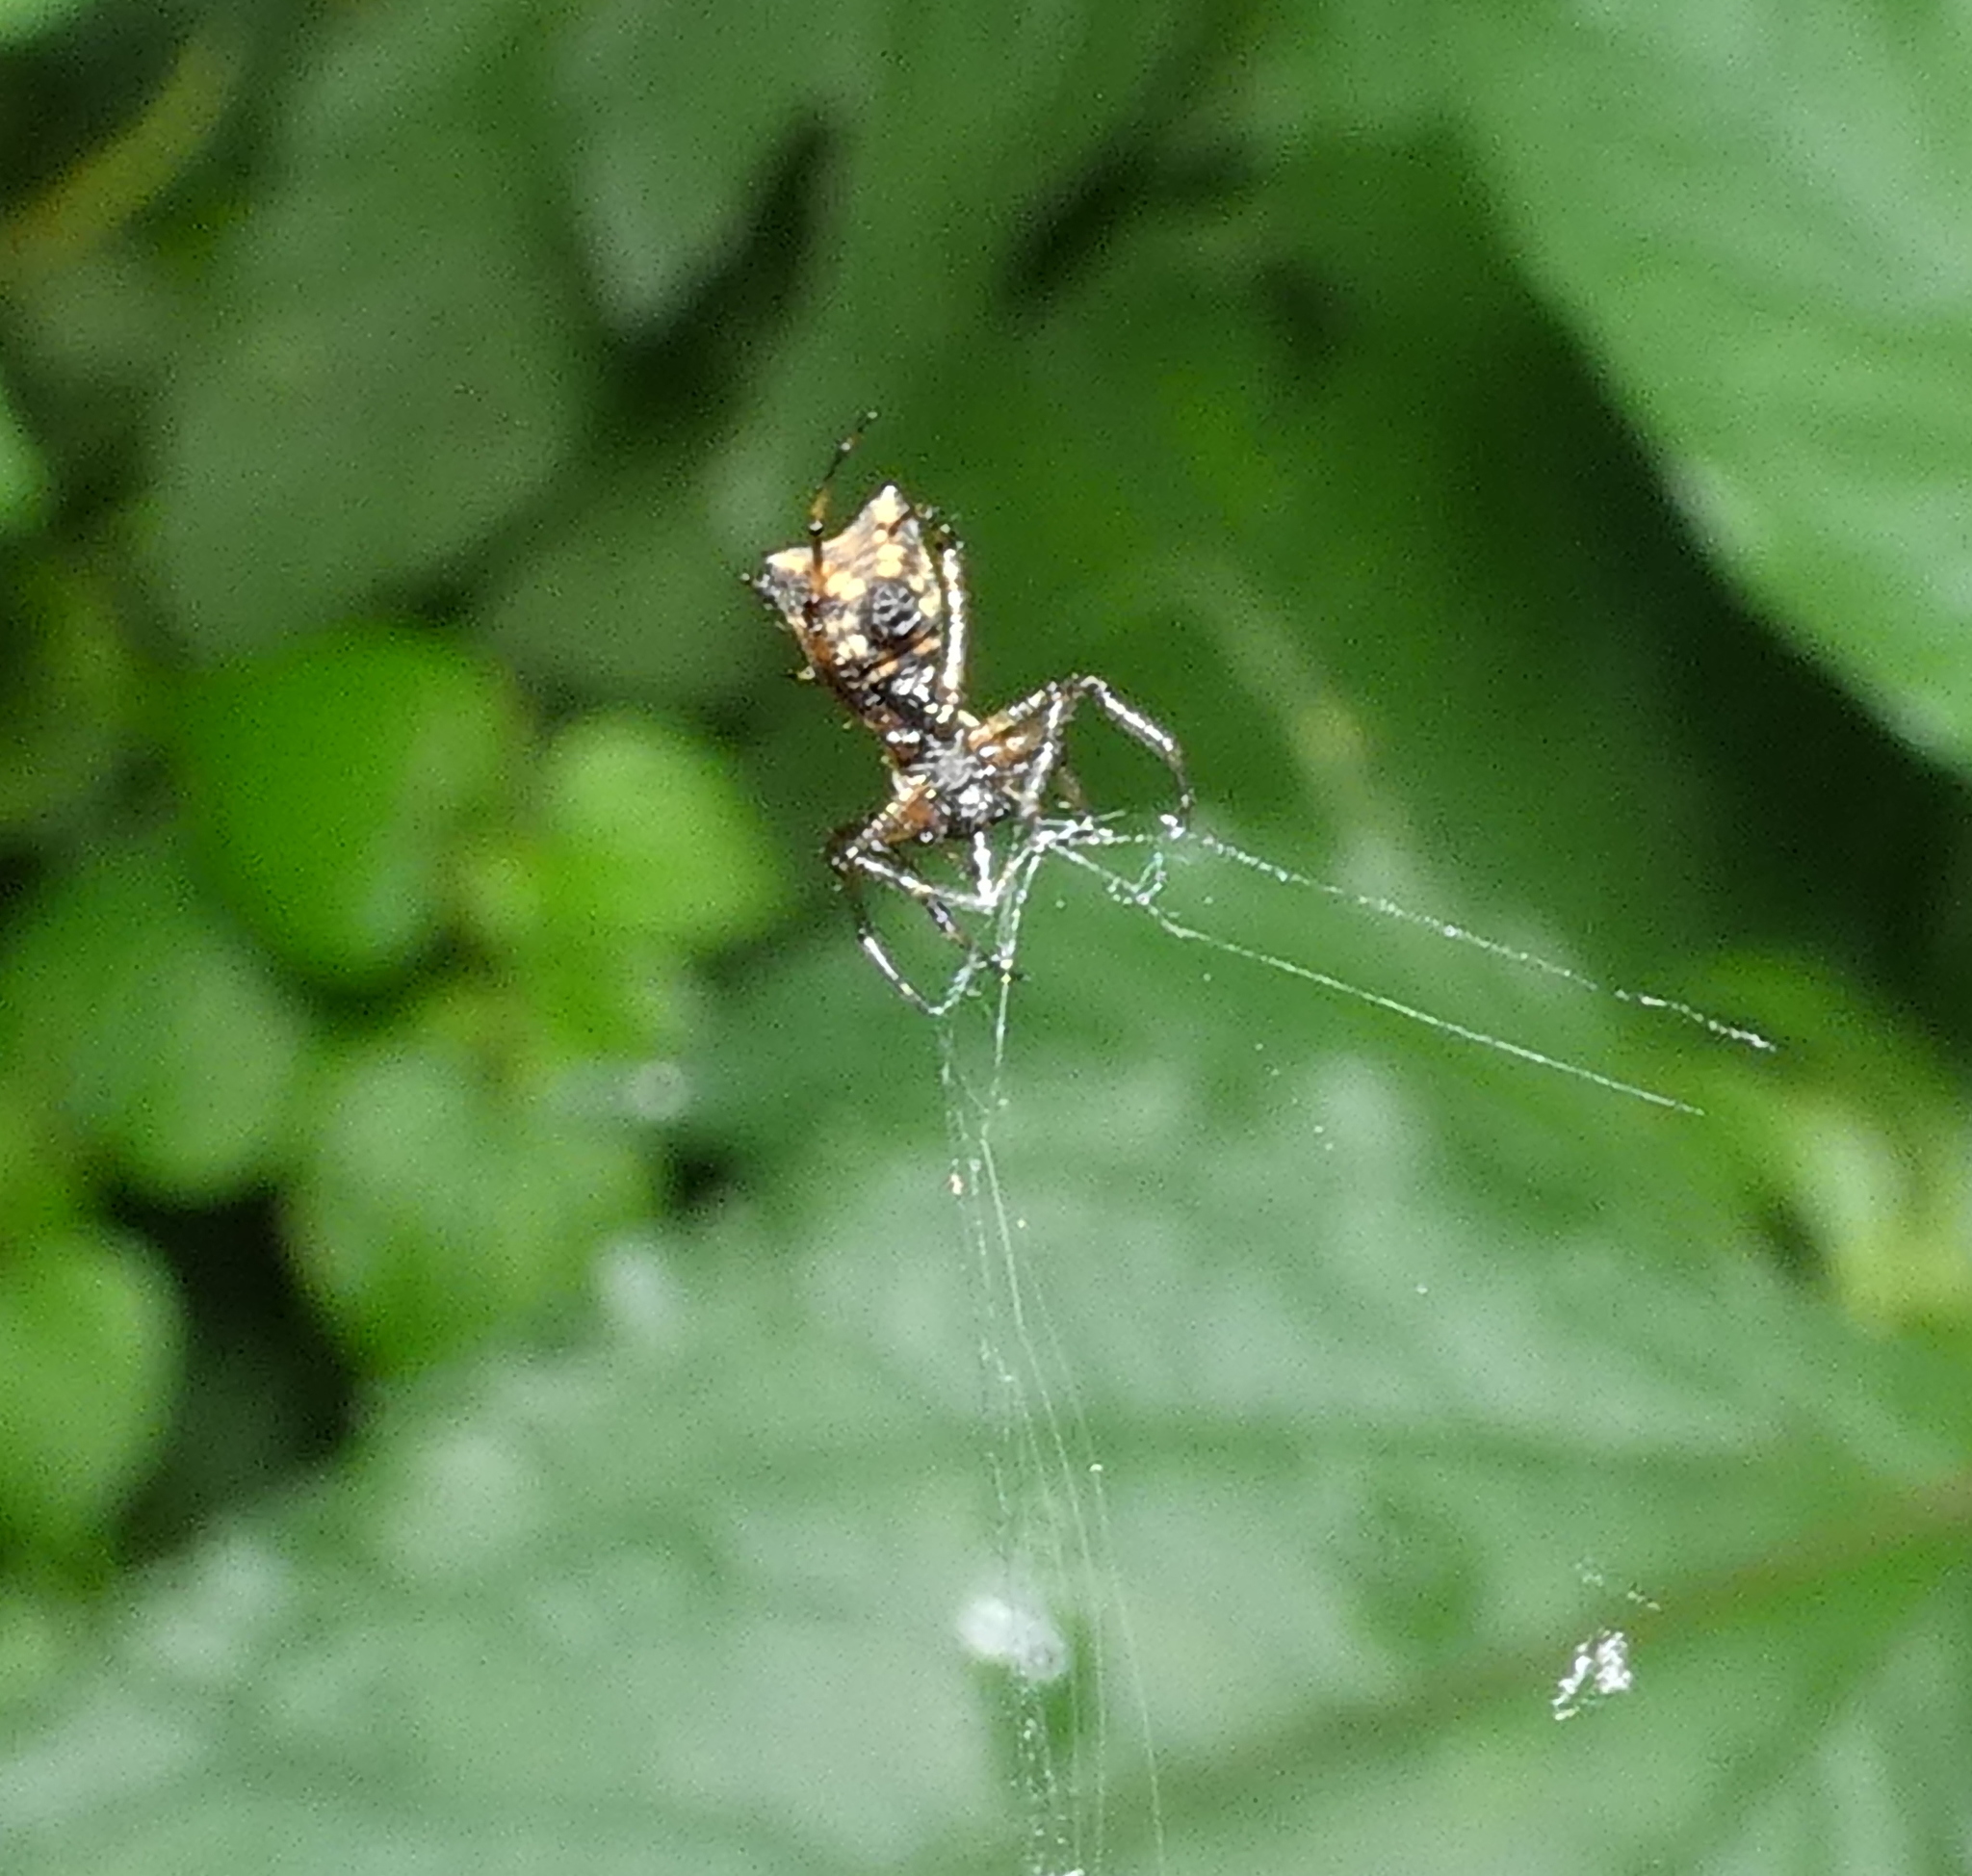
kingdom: Animalia
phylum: Arthropoda
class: Arachnida
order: Araneae
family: Araneidae
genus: Micrathena
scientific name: Micrathena picta
